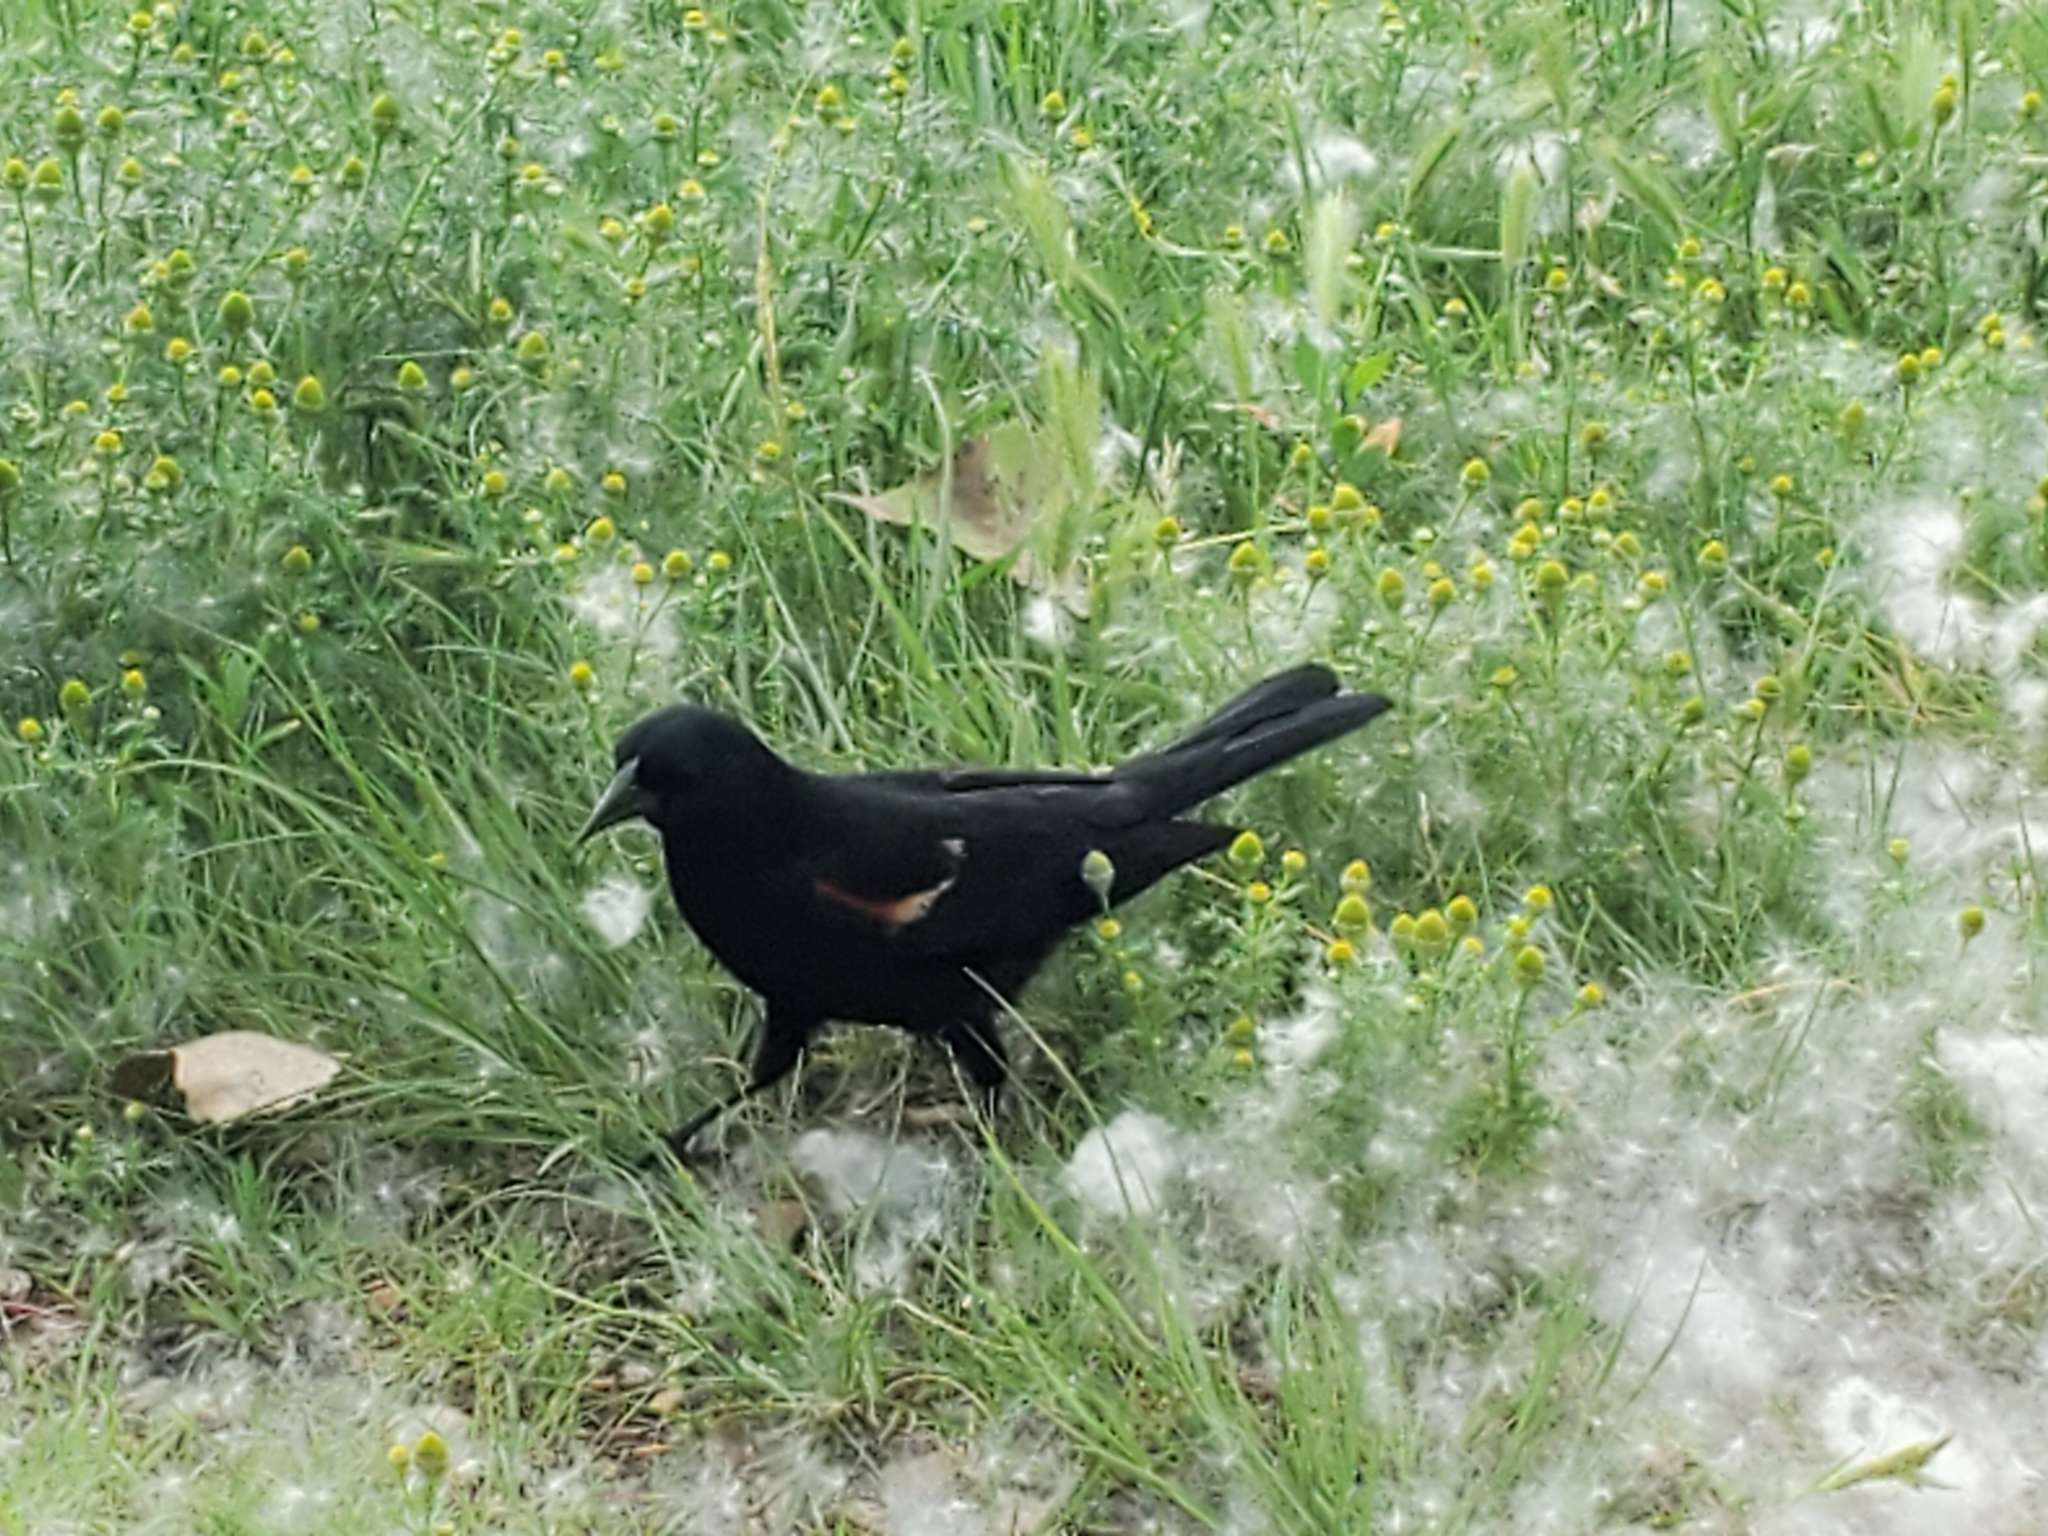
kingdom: Animalia
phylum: Chordata
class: Aves
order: Passeriformes
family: Icteridae
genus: Agelaius
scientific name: Agelaius phoeniceus
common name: Red-winged blackbird
